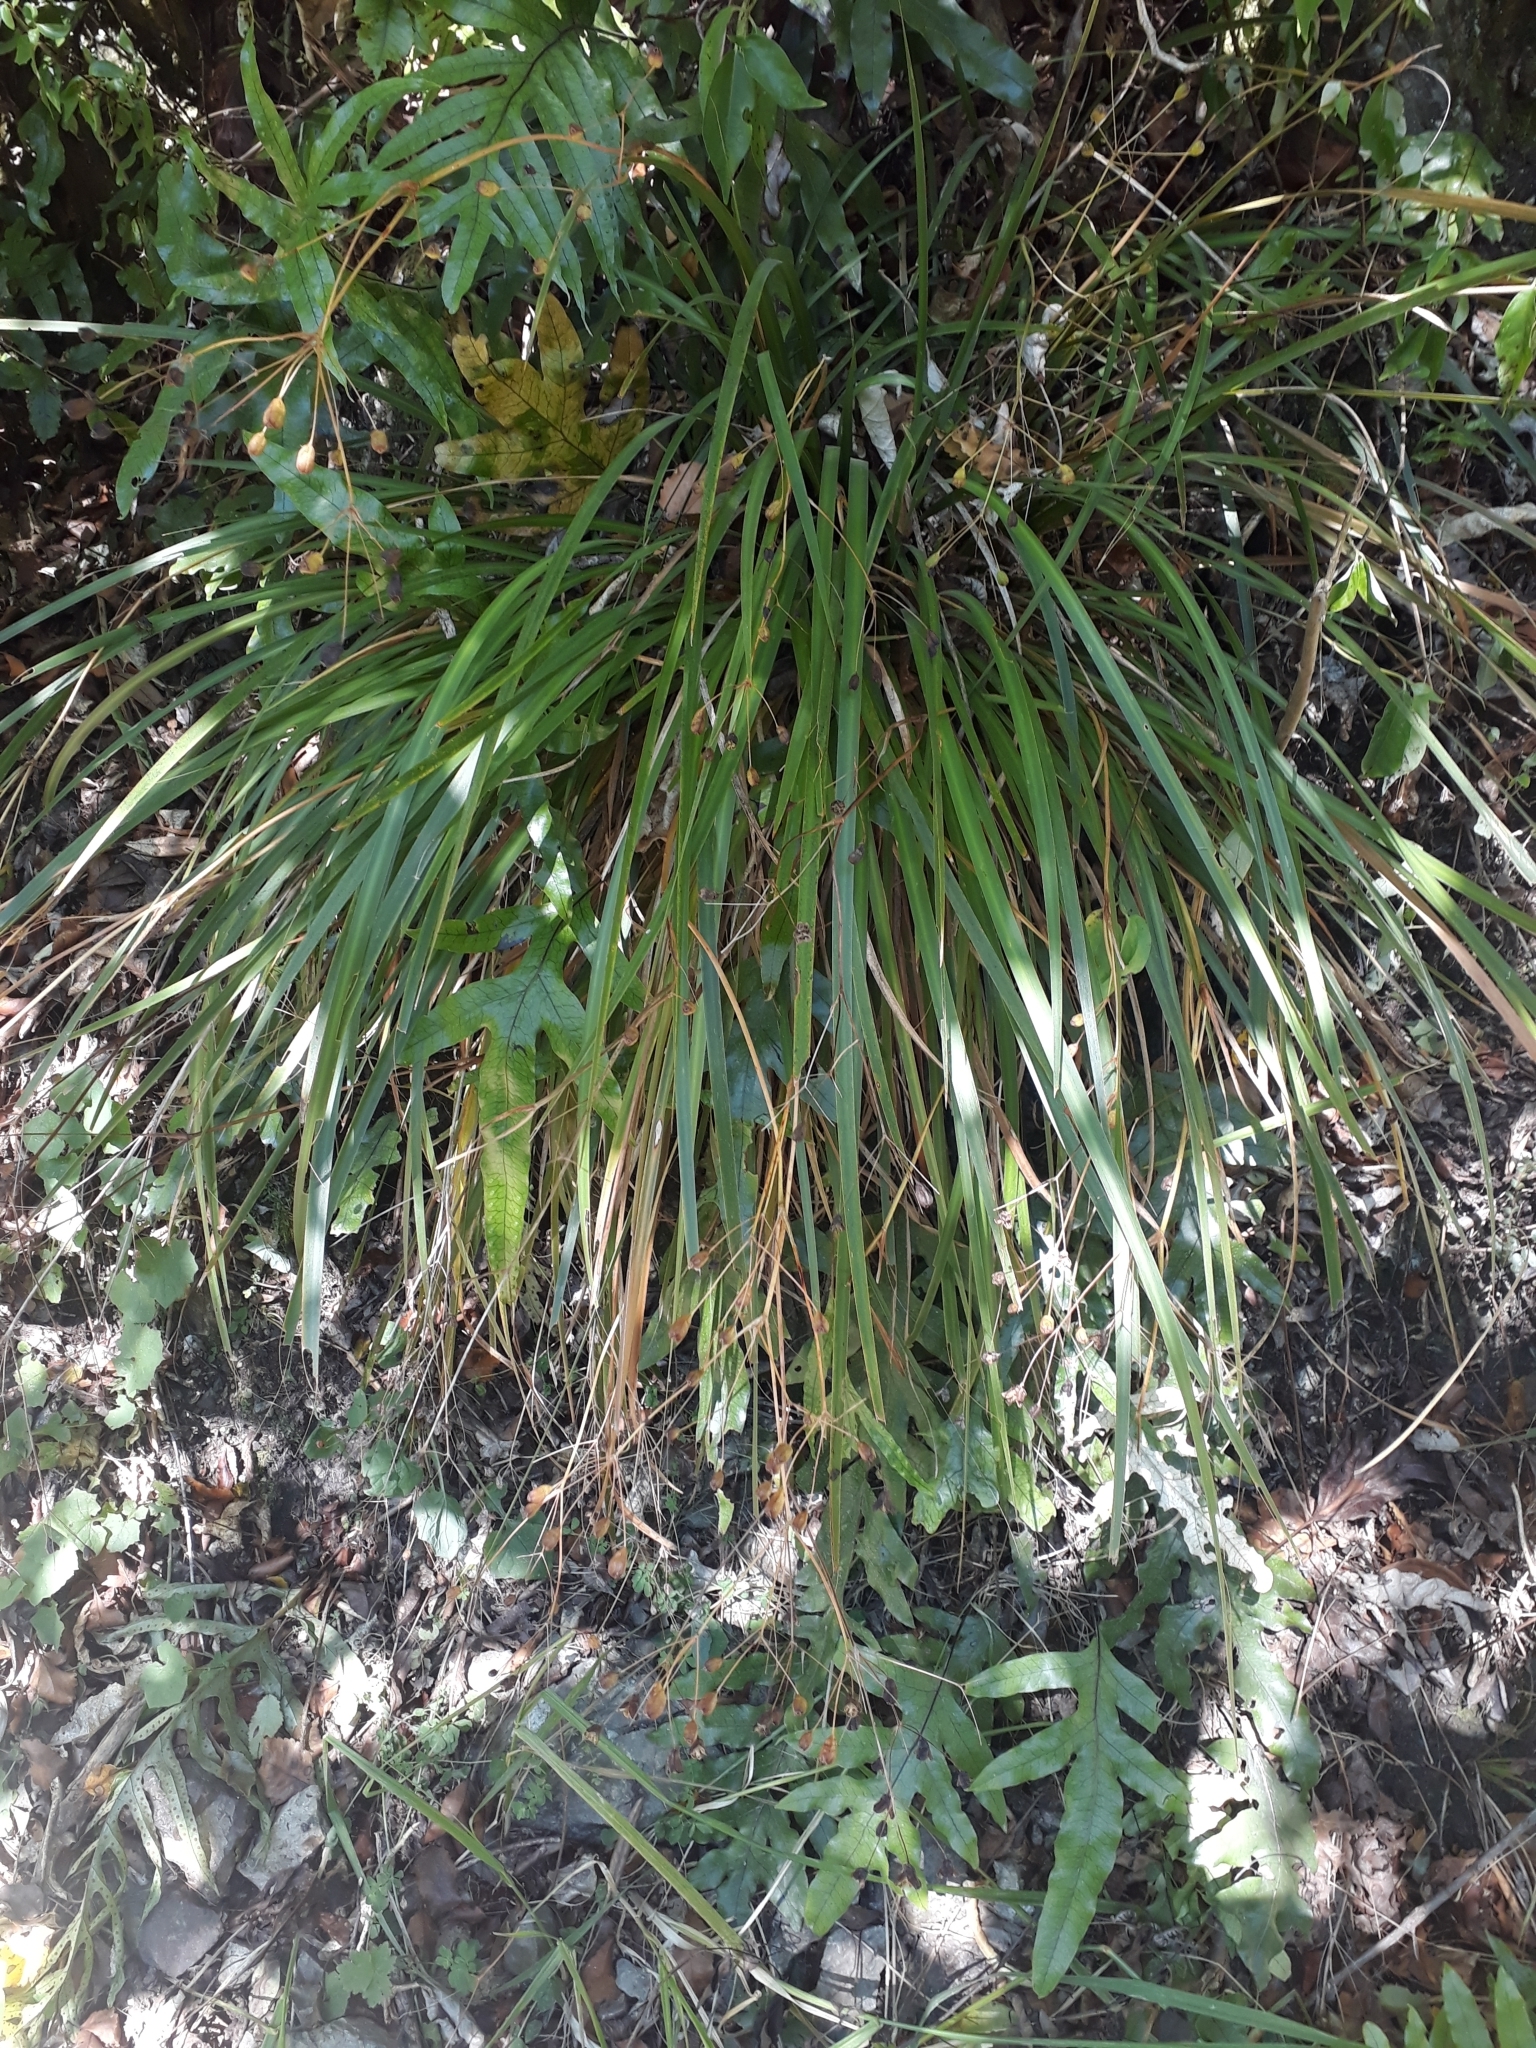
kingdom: Plantae
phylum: Tracheophyta
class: Liliopsida
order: Asparagales
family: Iridaceae
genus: Libertia
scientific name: Libertia grandiflora
